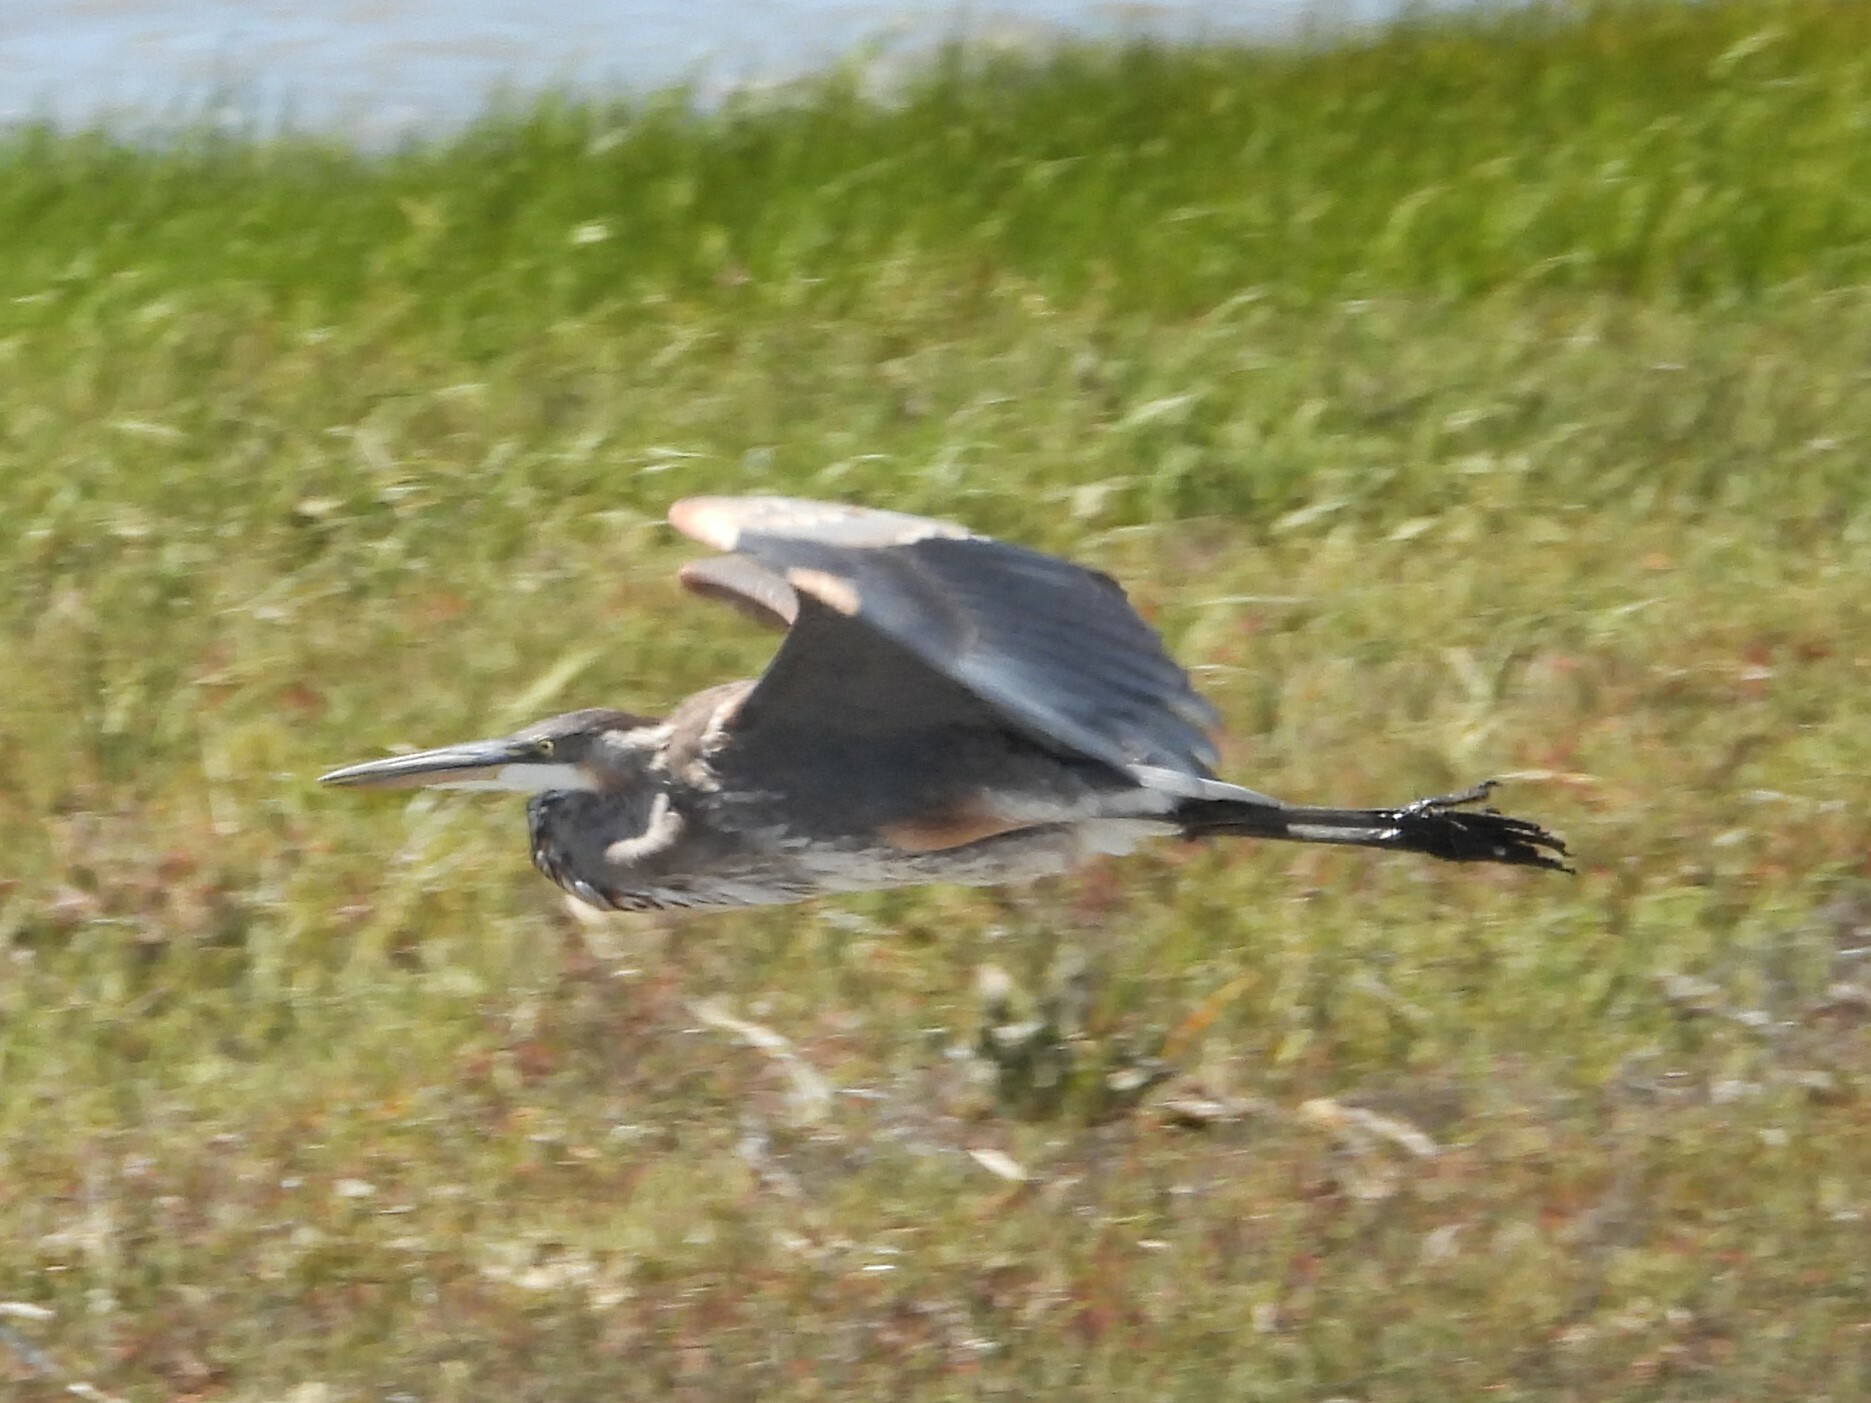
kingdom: Animalia
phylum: Chordata
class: Aves
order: Pelecaniformes
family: Ardeidae
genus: Ardea
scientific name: Ardea herodias
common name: Great blue heron
